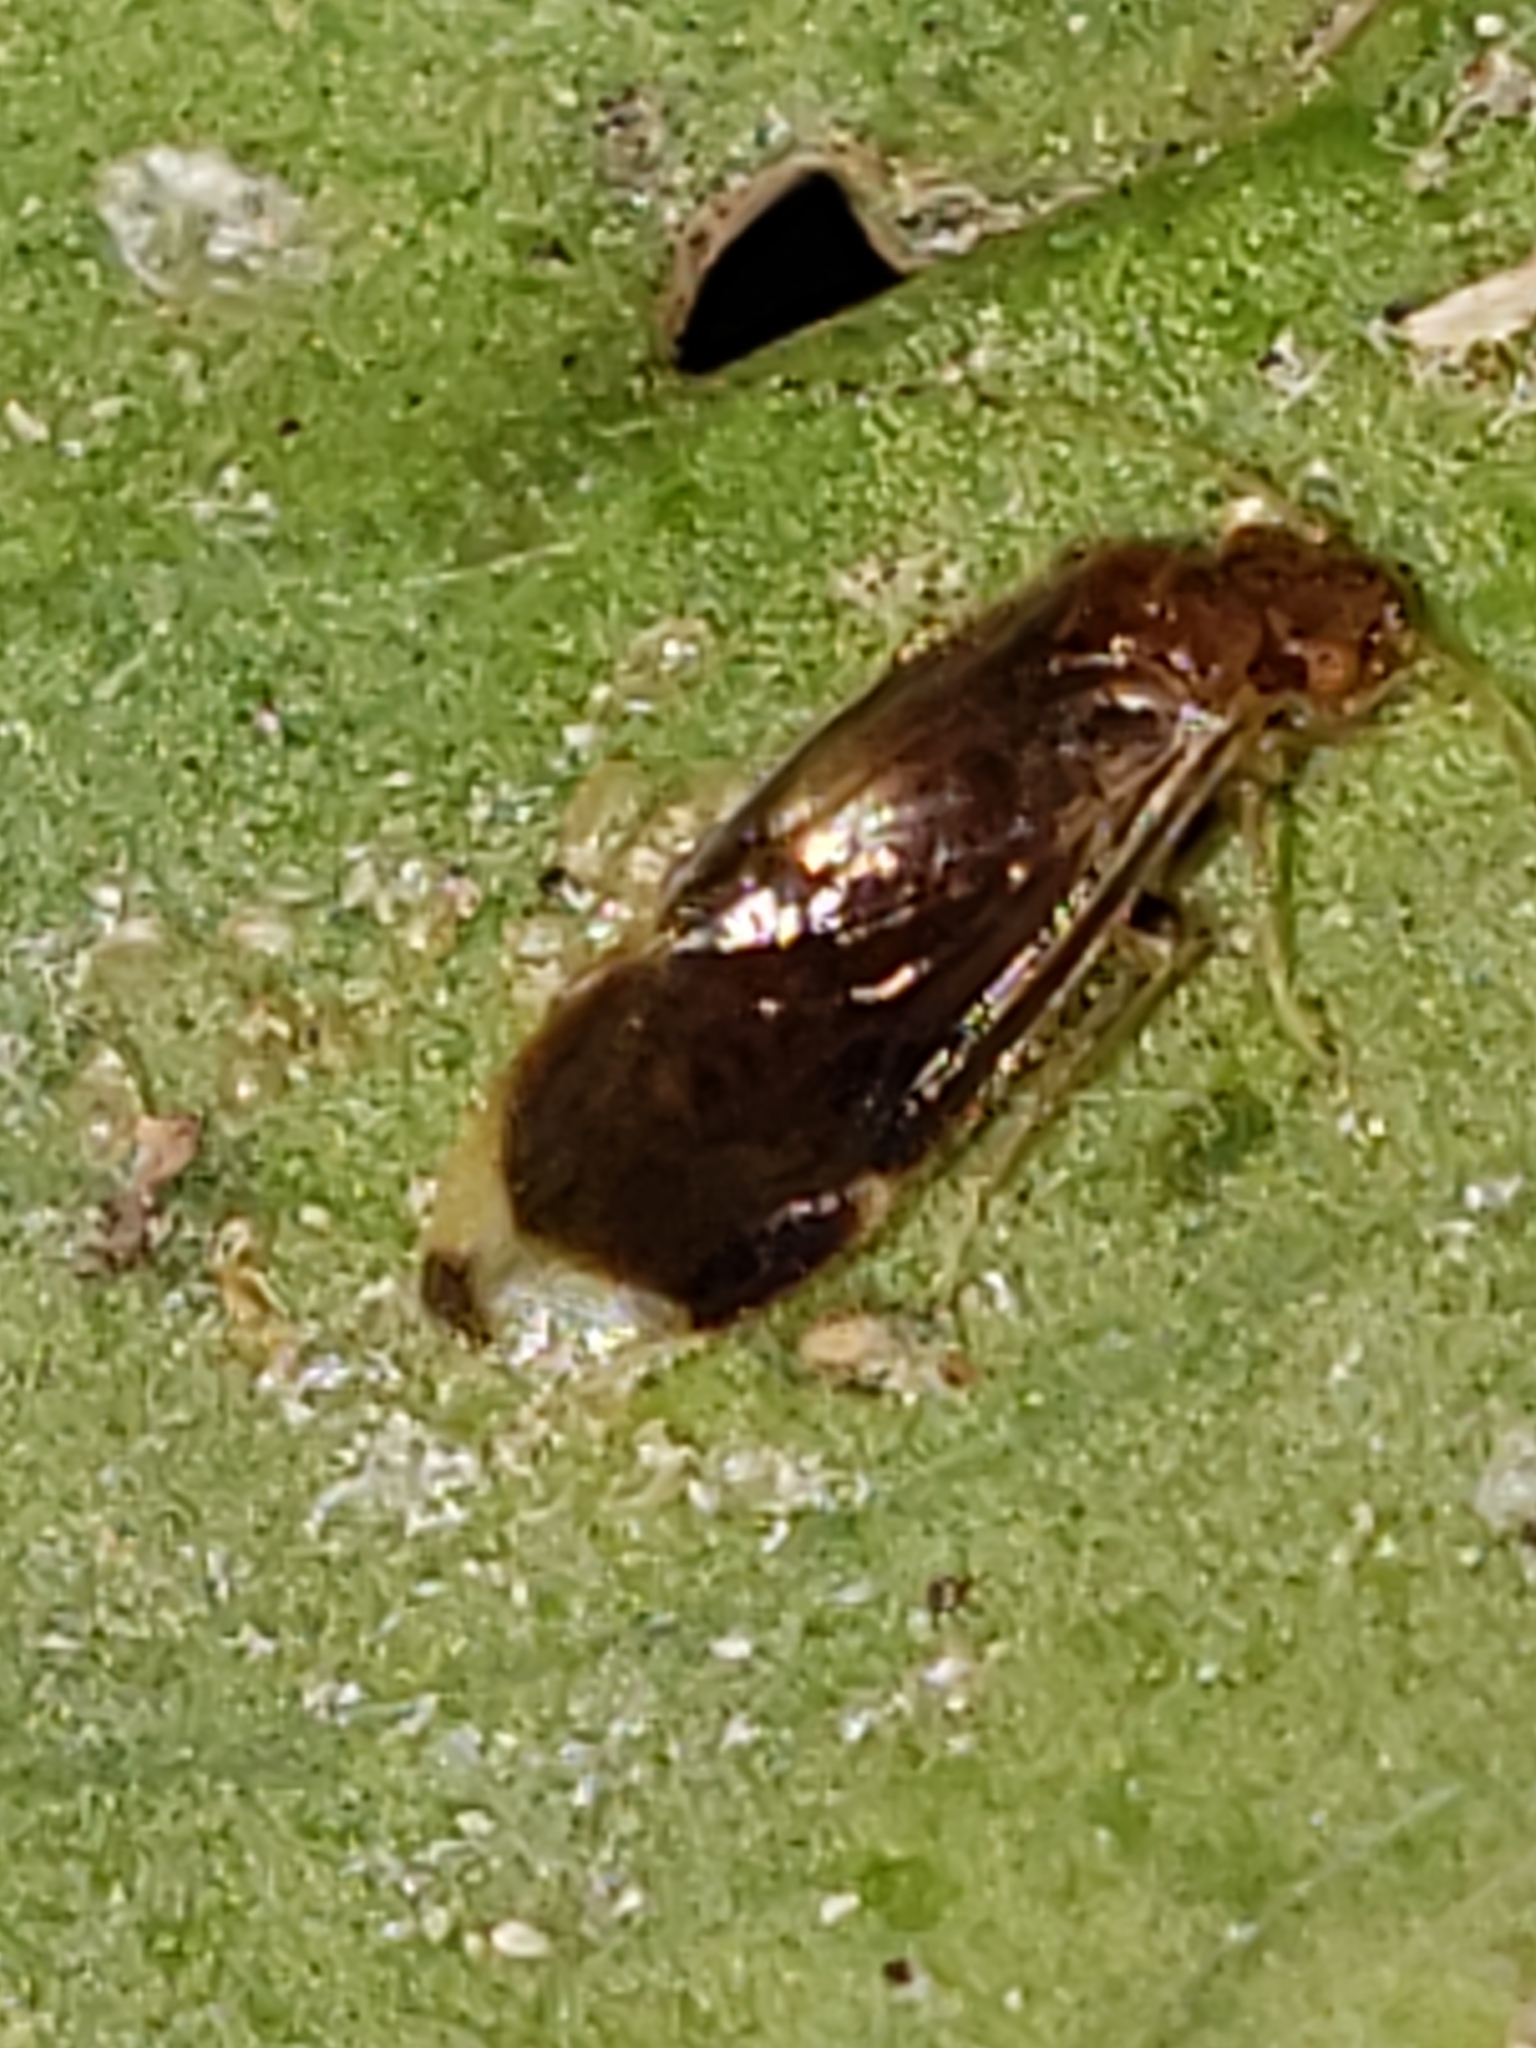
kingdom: Animalia
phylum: Arthropoda
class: Insecta
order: Psocodea
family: Amphipsocidae
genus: Polypsocus
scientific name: Polypsocus corruptus
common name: Corrupt barklouse
